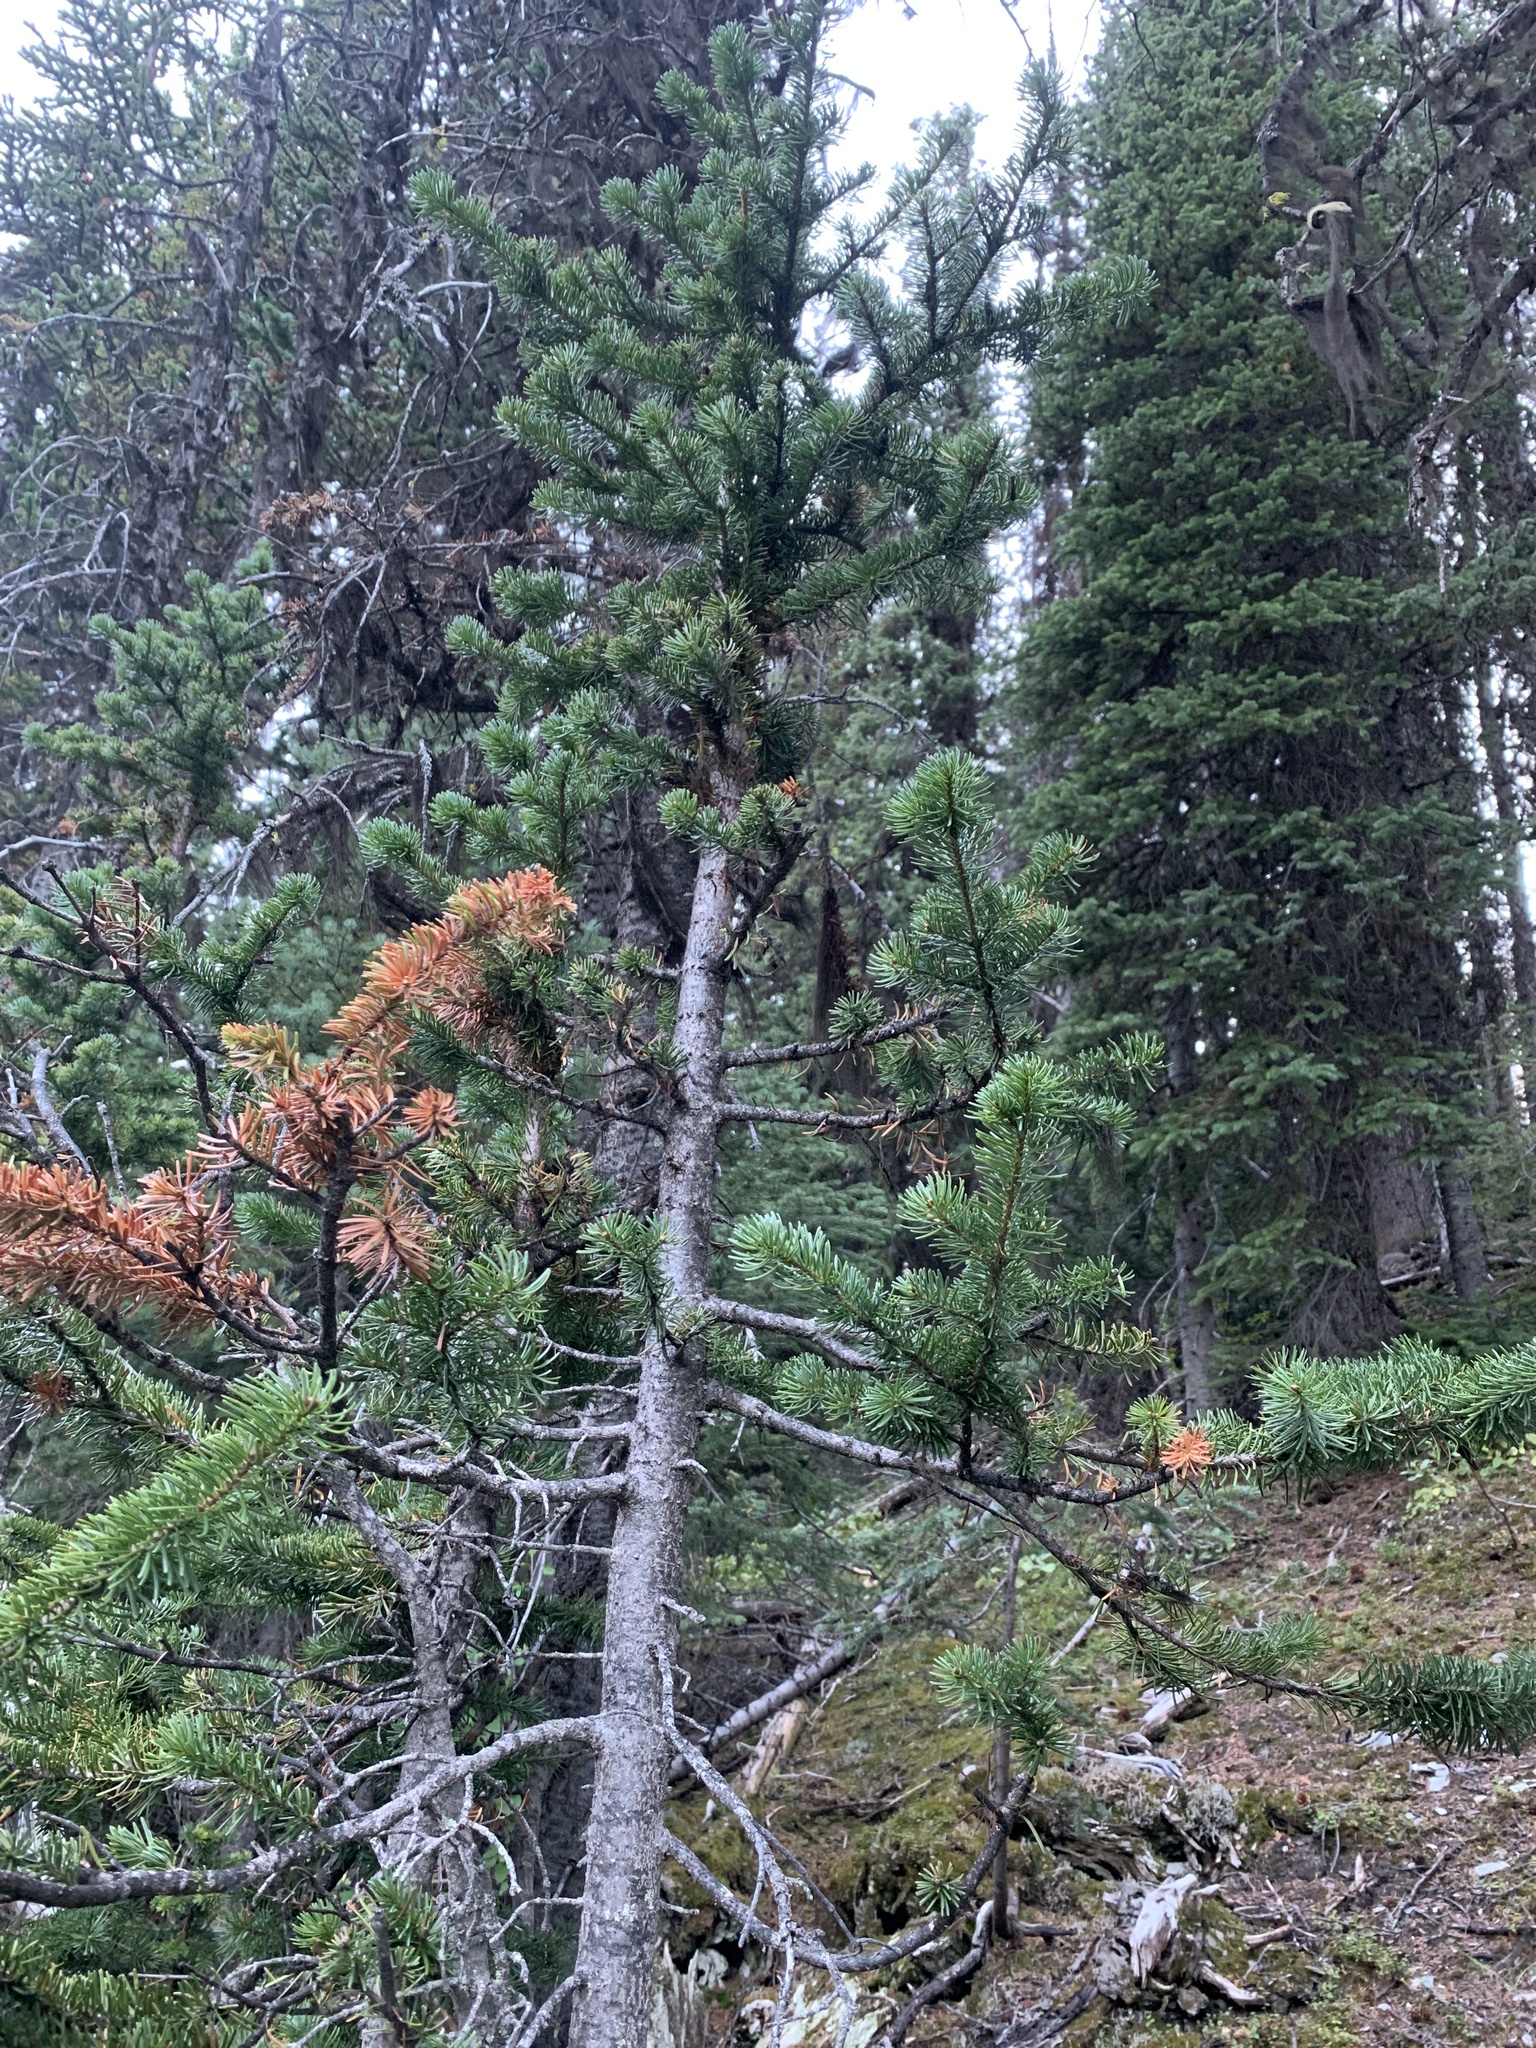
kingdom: Plantae
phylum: Tracheophyta
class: Pinopsida
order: Pinales
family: Pinaceae
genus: Abies
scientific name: Abies lasiocarpa
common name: Subalpine fir
